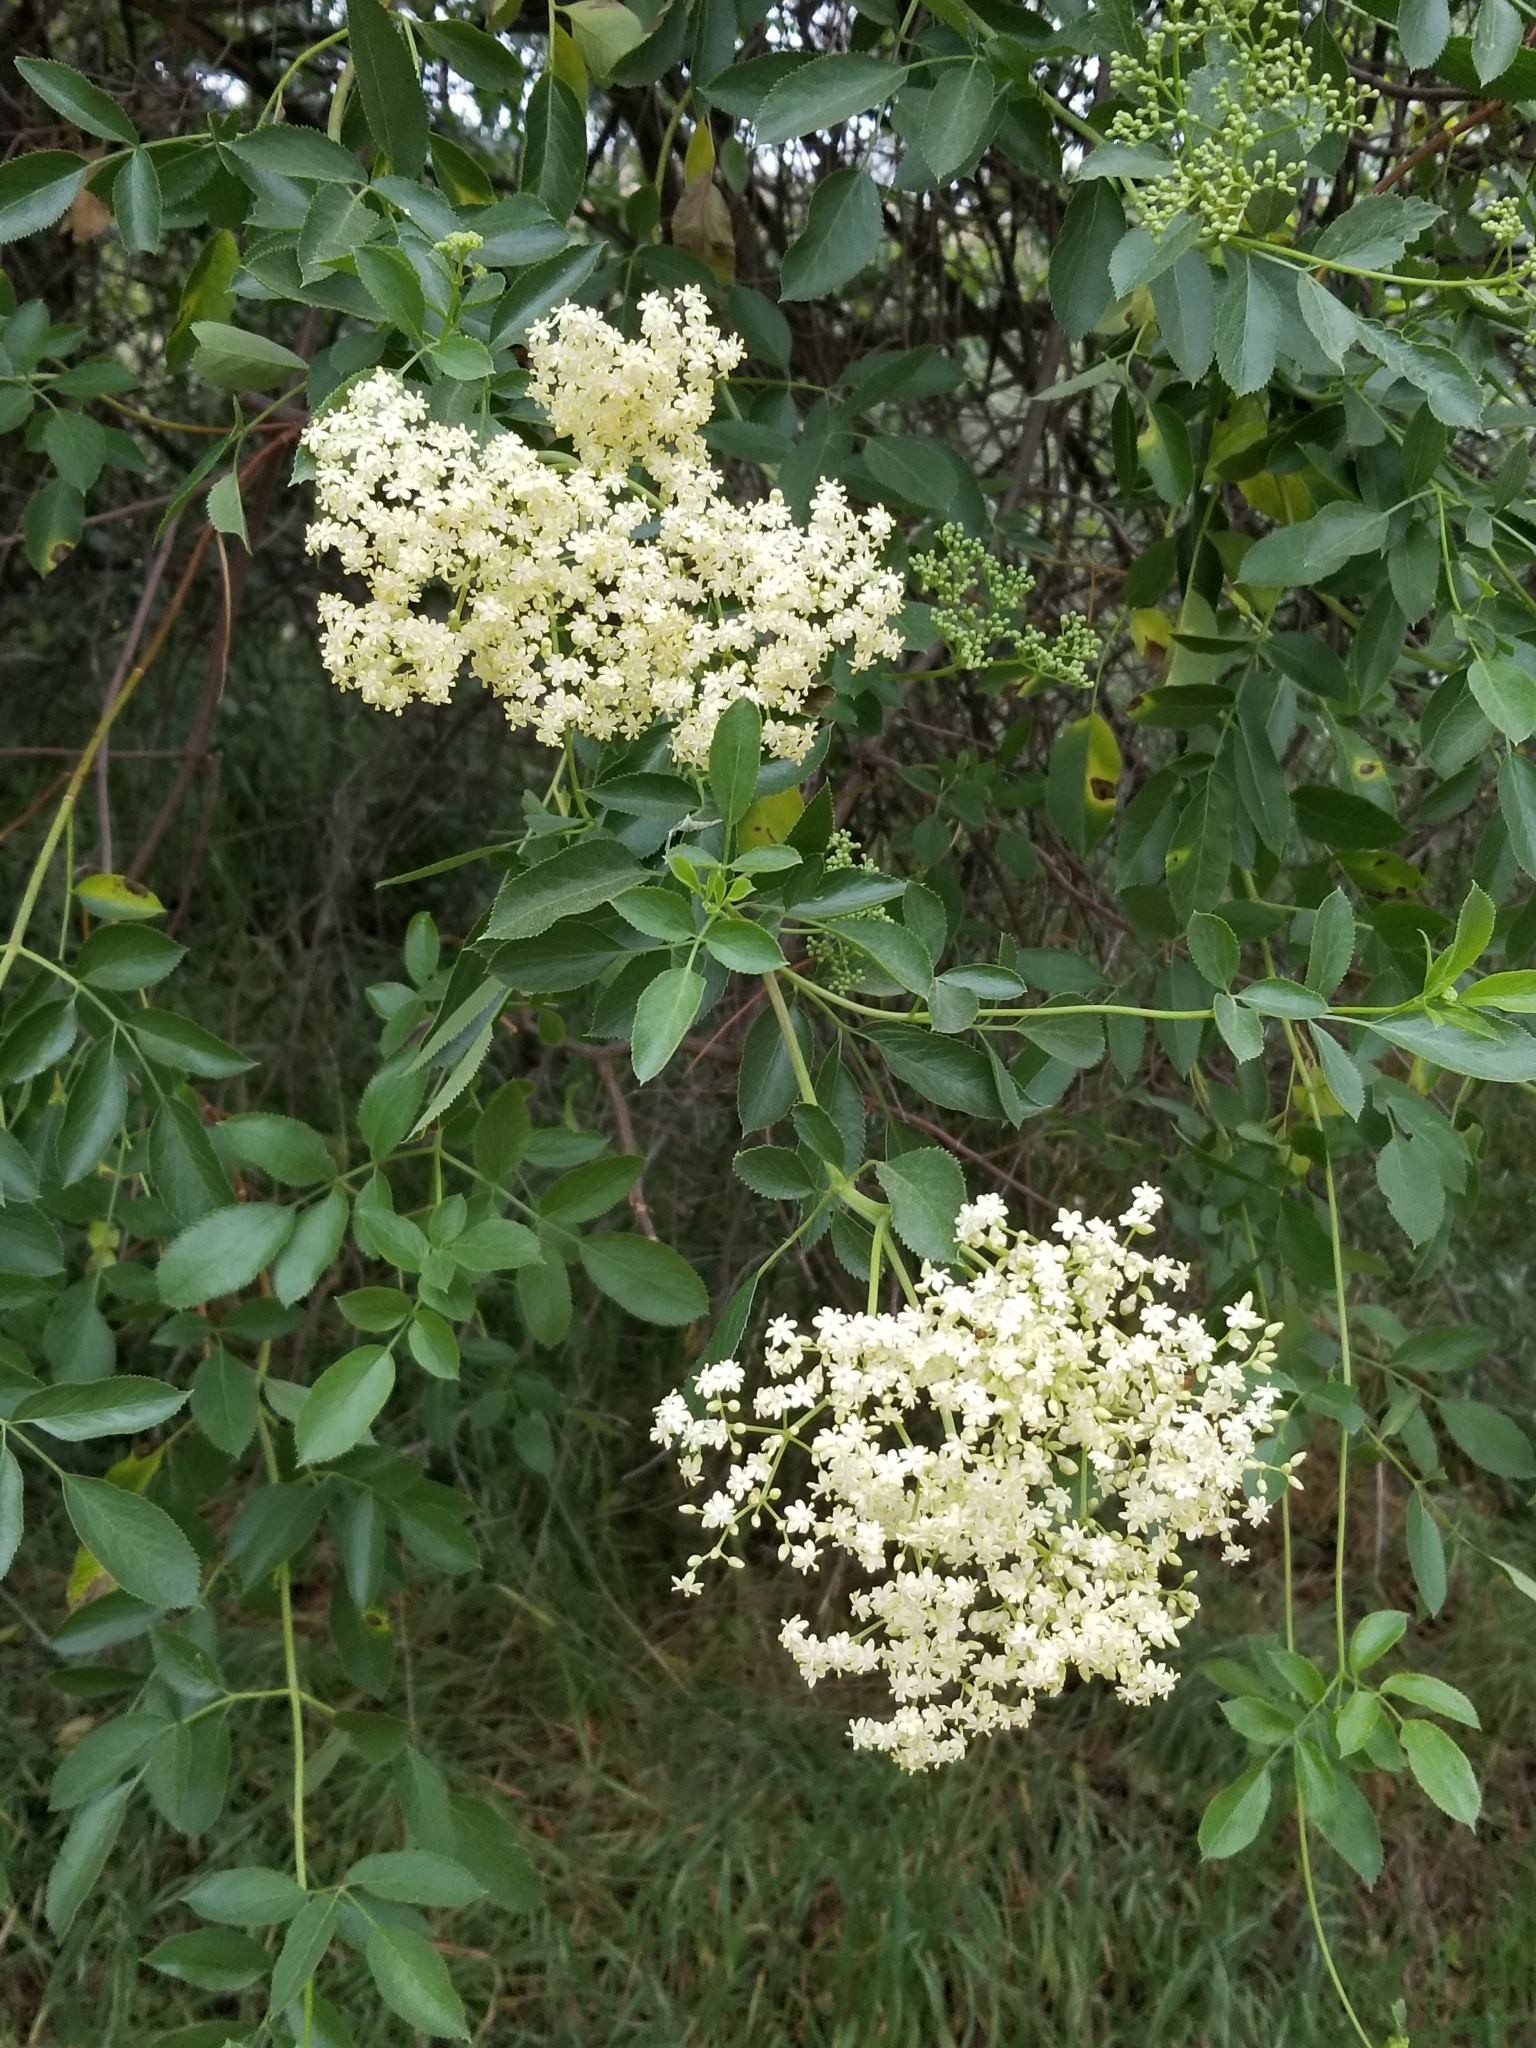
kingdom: Plantae
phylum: Tracheophyta
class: Magnoliopsida
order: Dipsacales
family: Viburnaceae
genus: Sambucus
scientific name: Sambucus cerulea
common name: Blue elder
